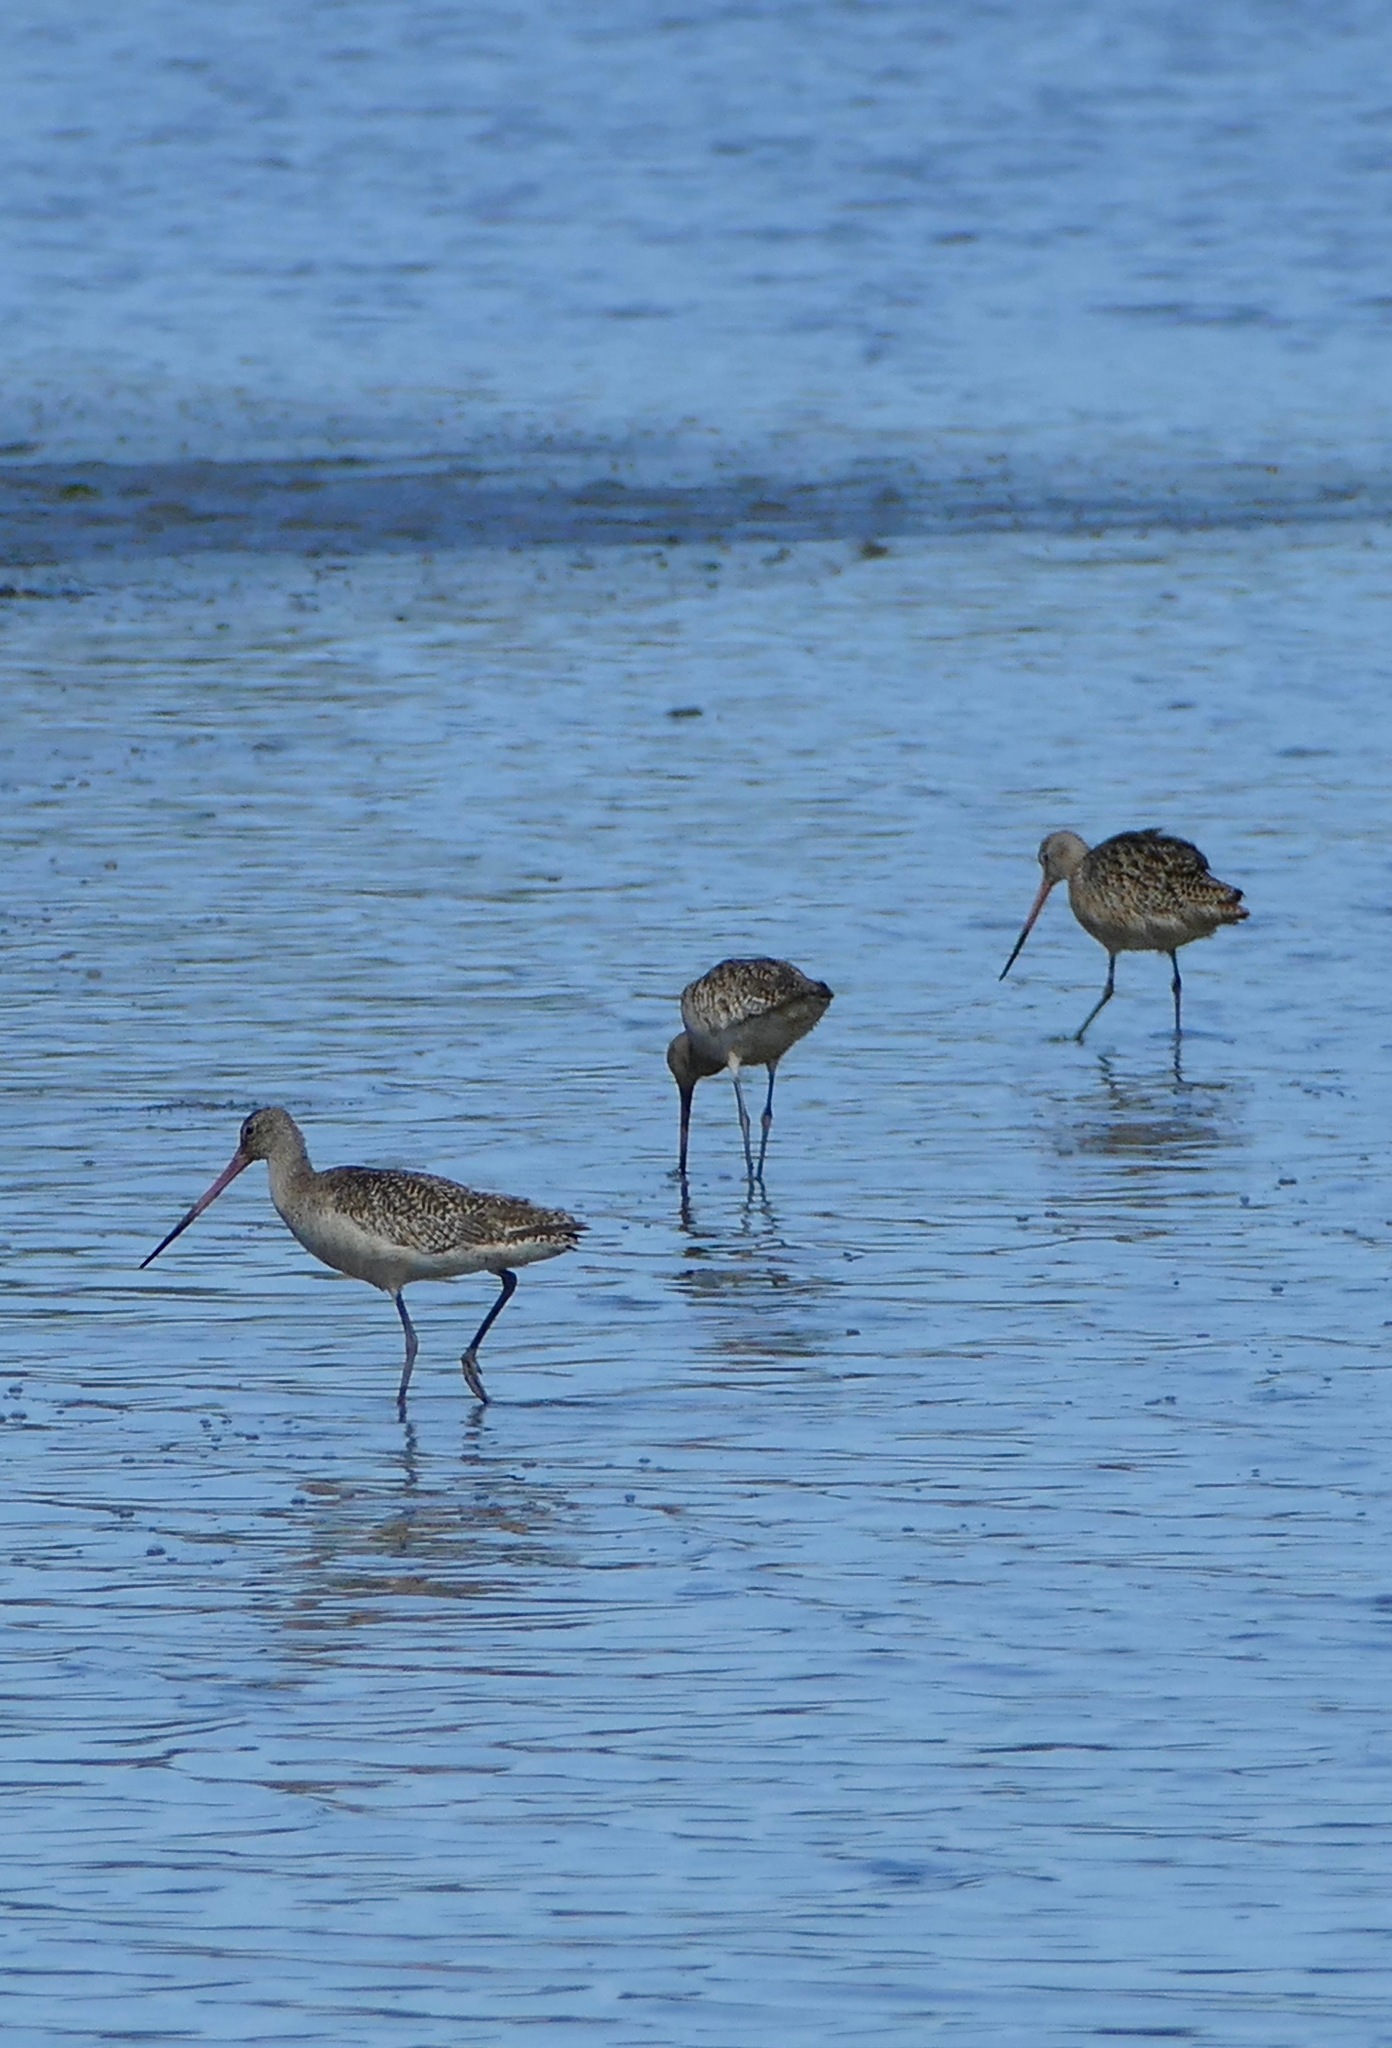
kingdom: Animalia
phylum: Chordata
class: Aves
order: Charadriiformes
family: Scolopacidae
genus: Limosa
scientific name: Limosa fedoa
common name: Marbled godwit
